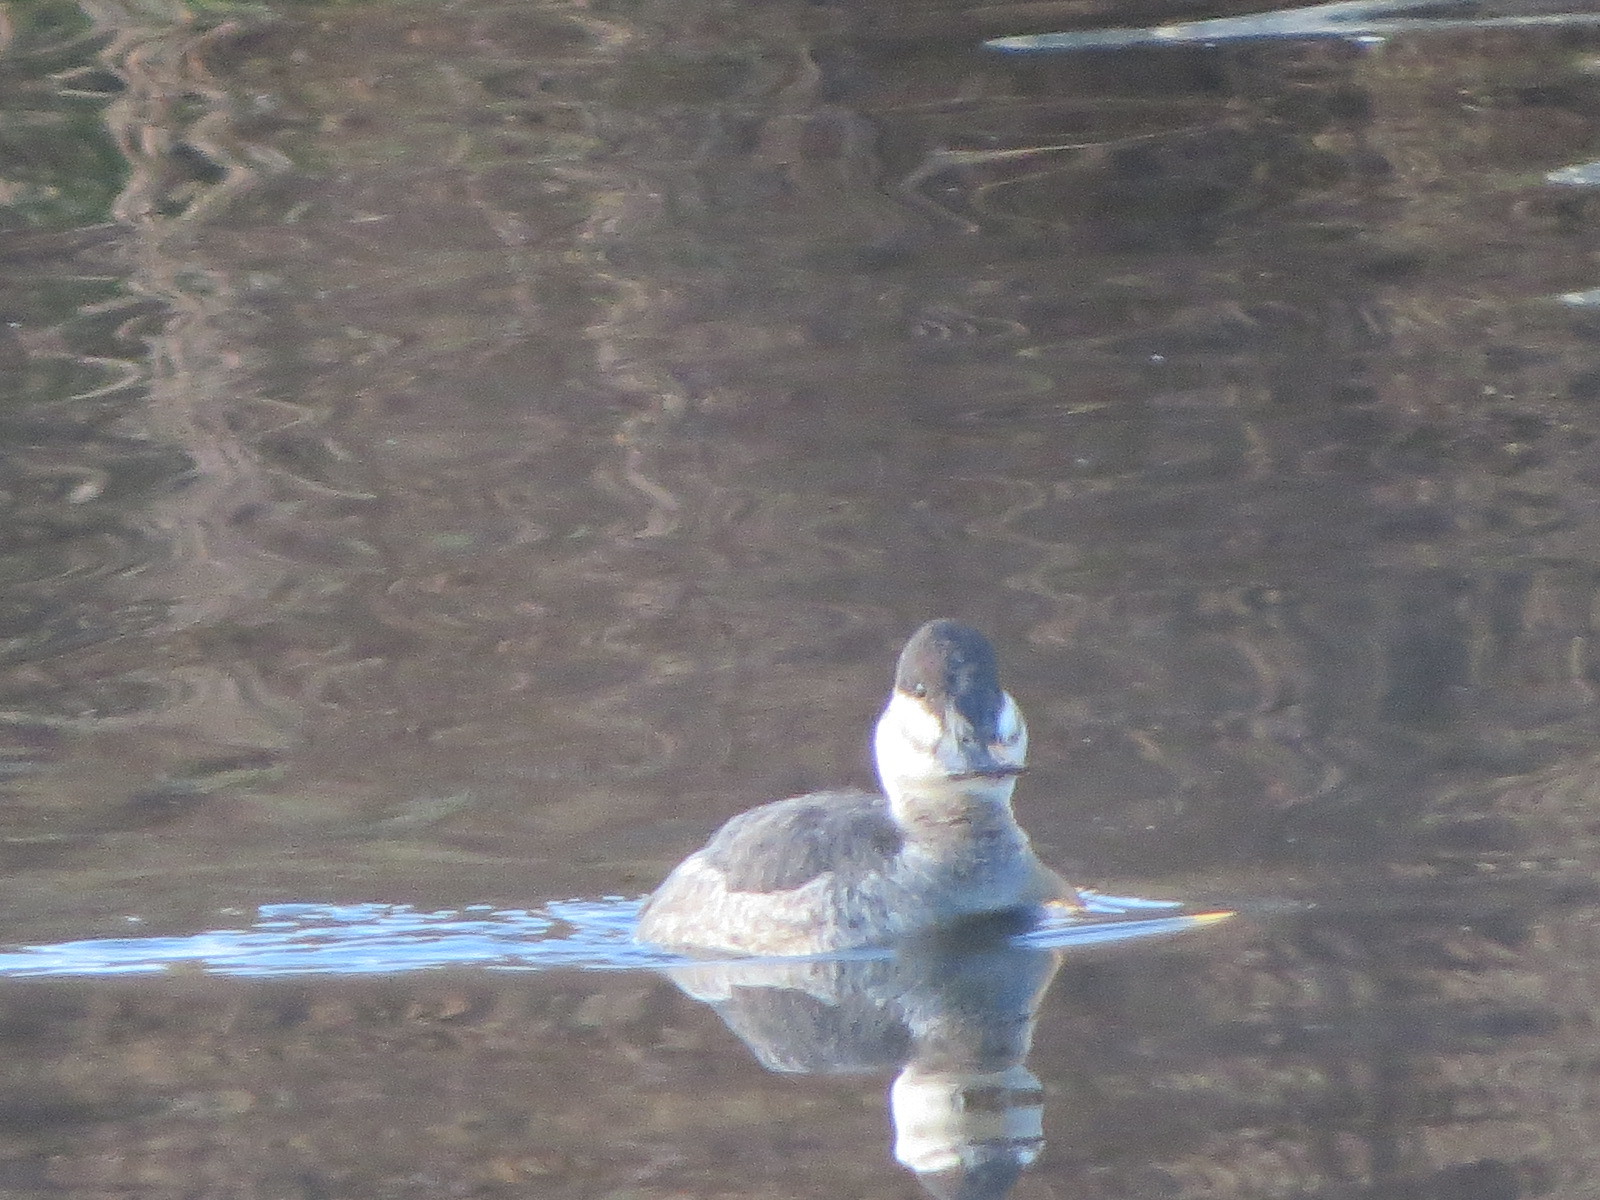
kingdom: Animalia
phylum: Chordata
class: Aves
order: Anseriformes
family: Anatidae
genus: Oxyura
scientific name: Oxyura jamaicensis
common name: Ruddy duck
